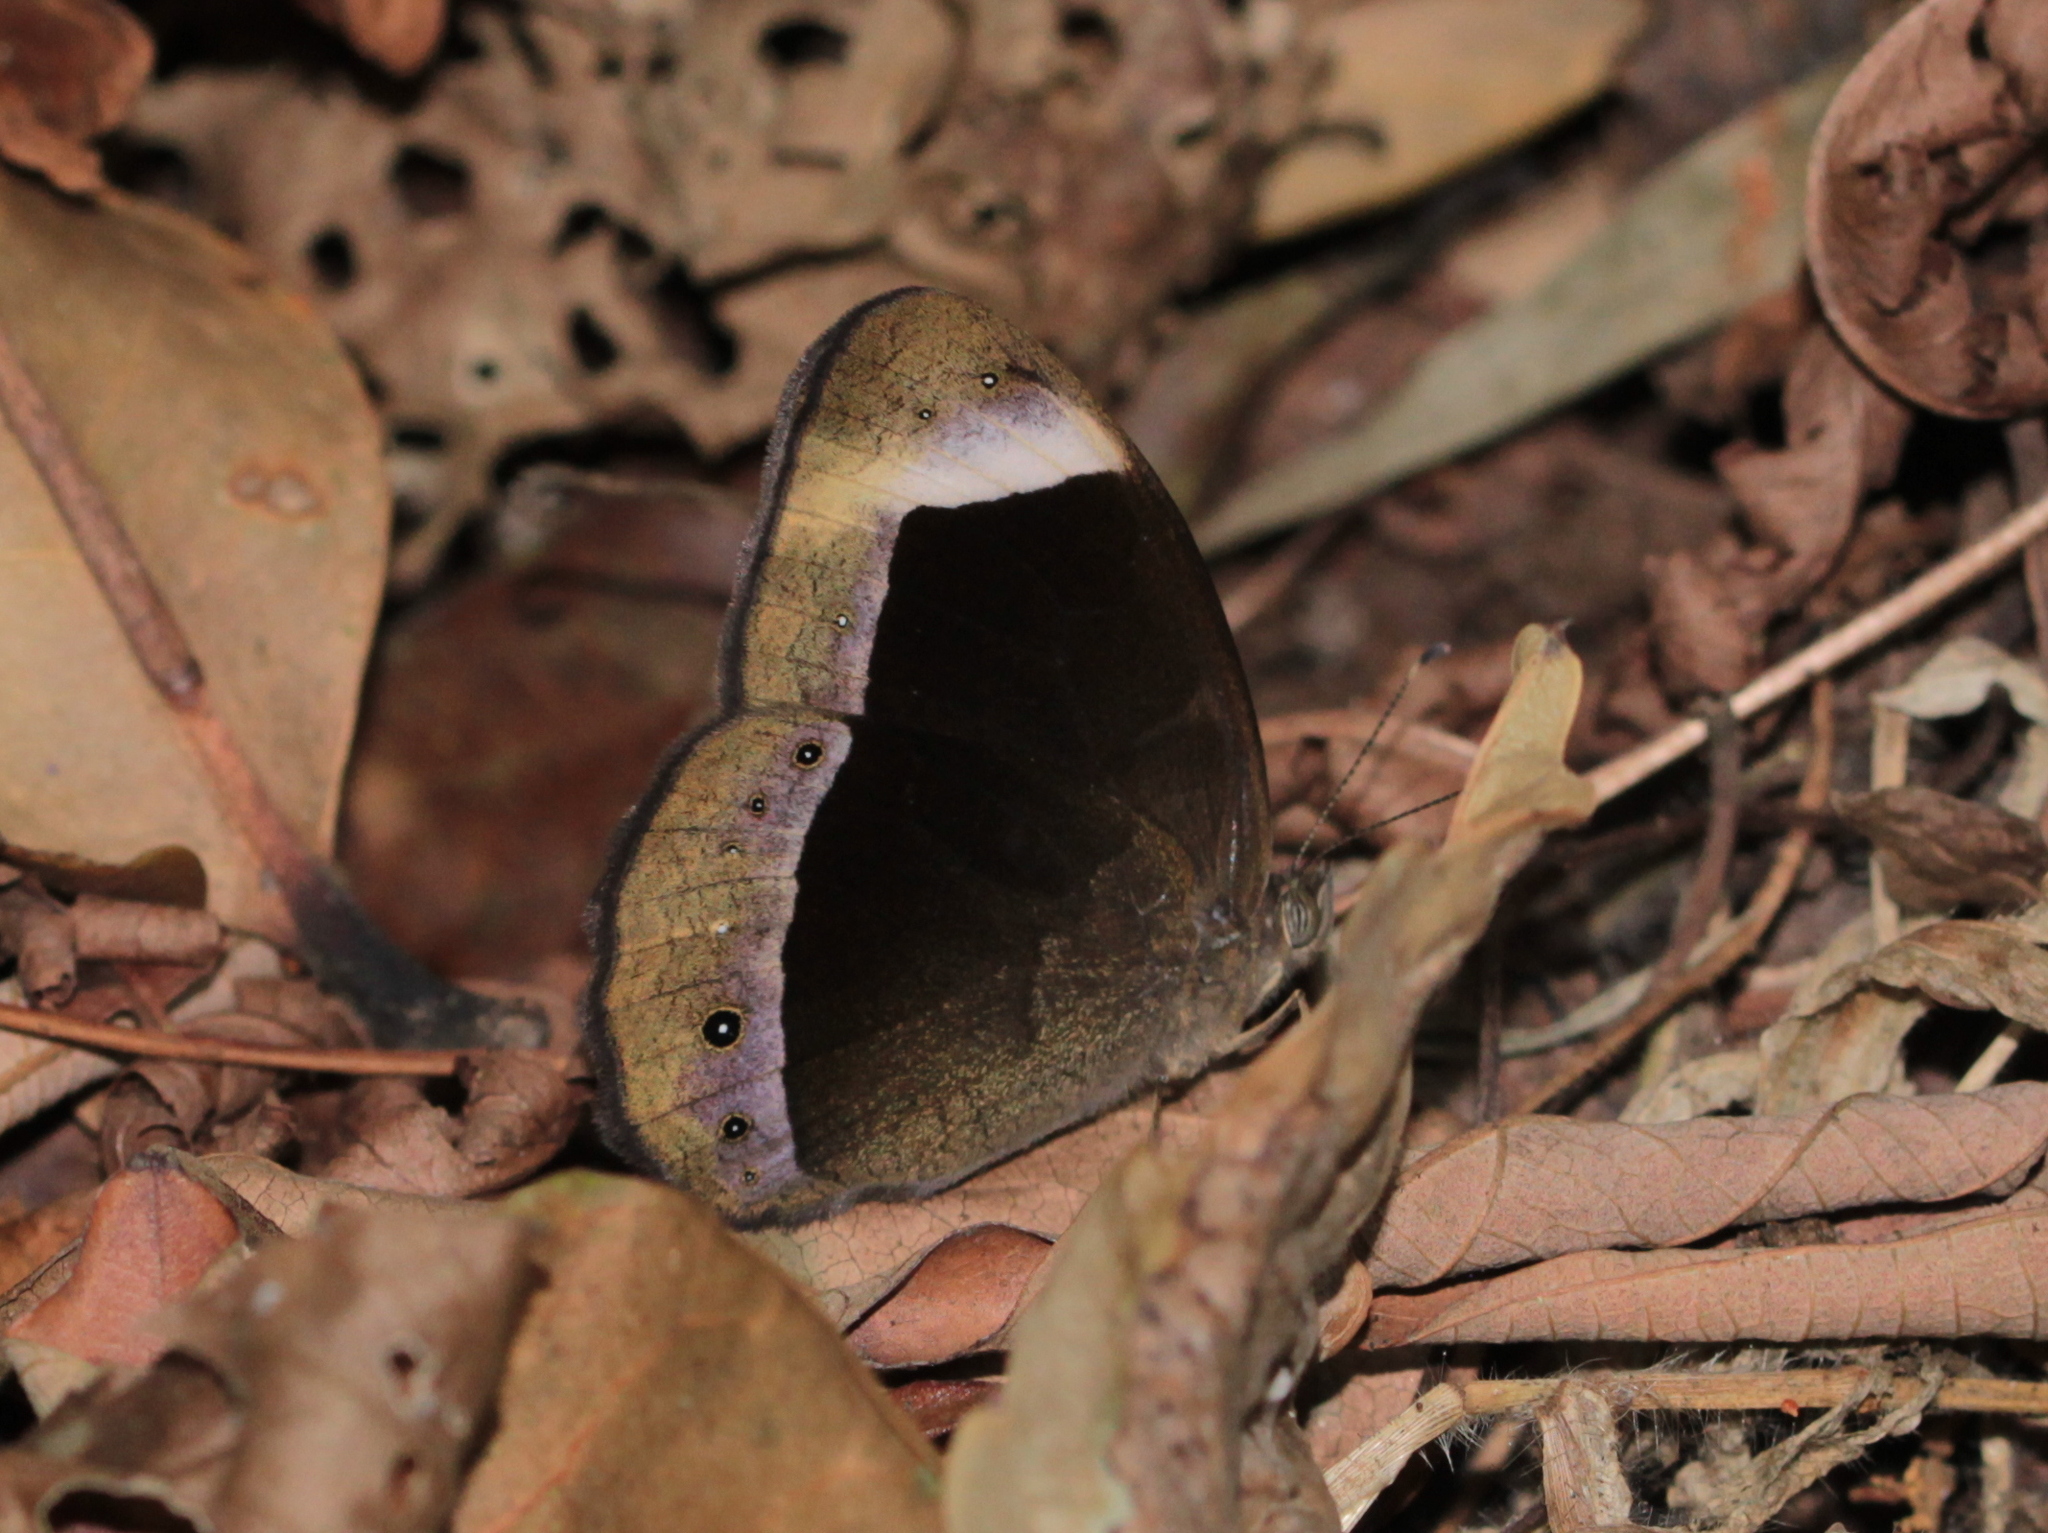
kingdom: Animalia
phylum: Arthropoda
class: Insecta
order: Lepidoptera
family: Nymphalidae
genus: Mycalesis
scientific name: Mycalesis anaxias
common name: White-bar bushbrown
